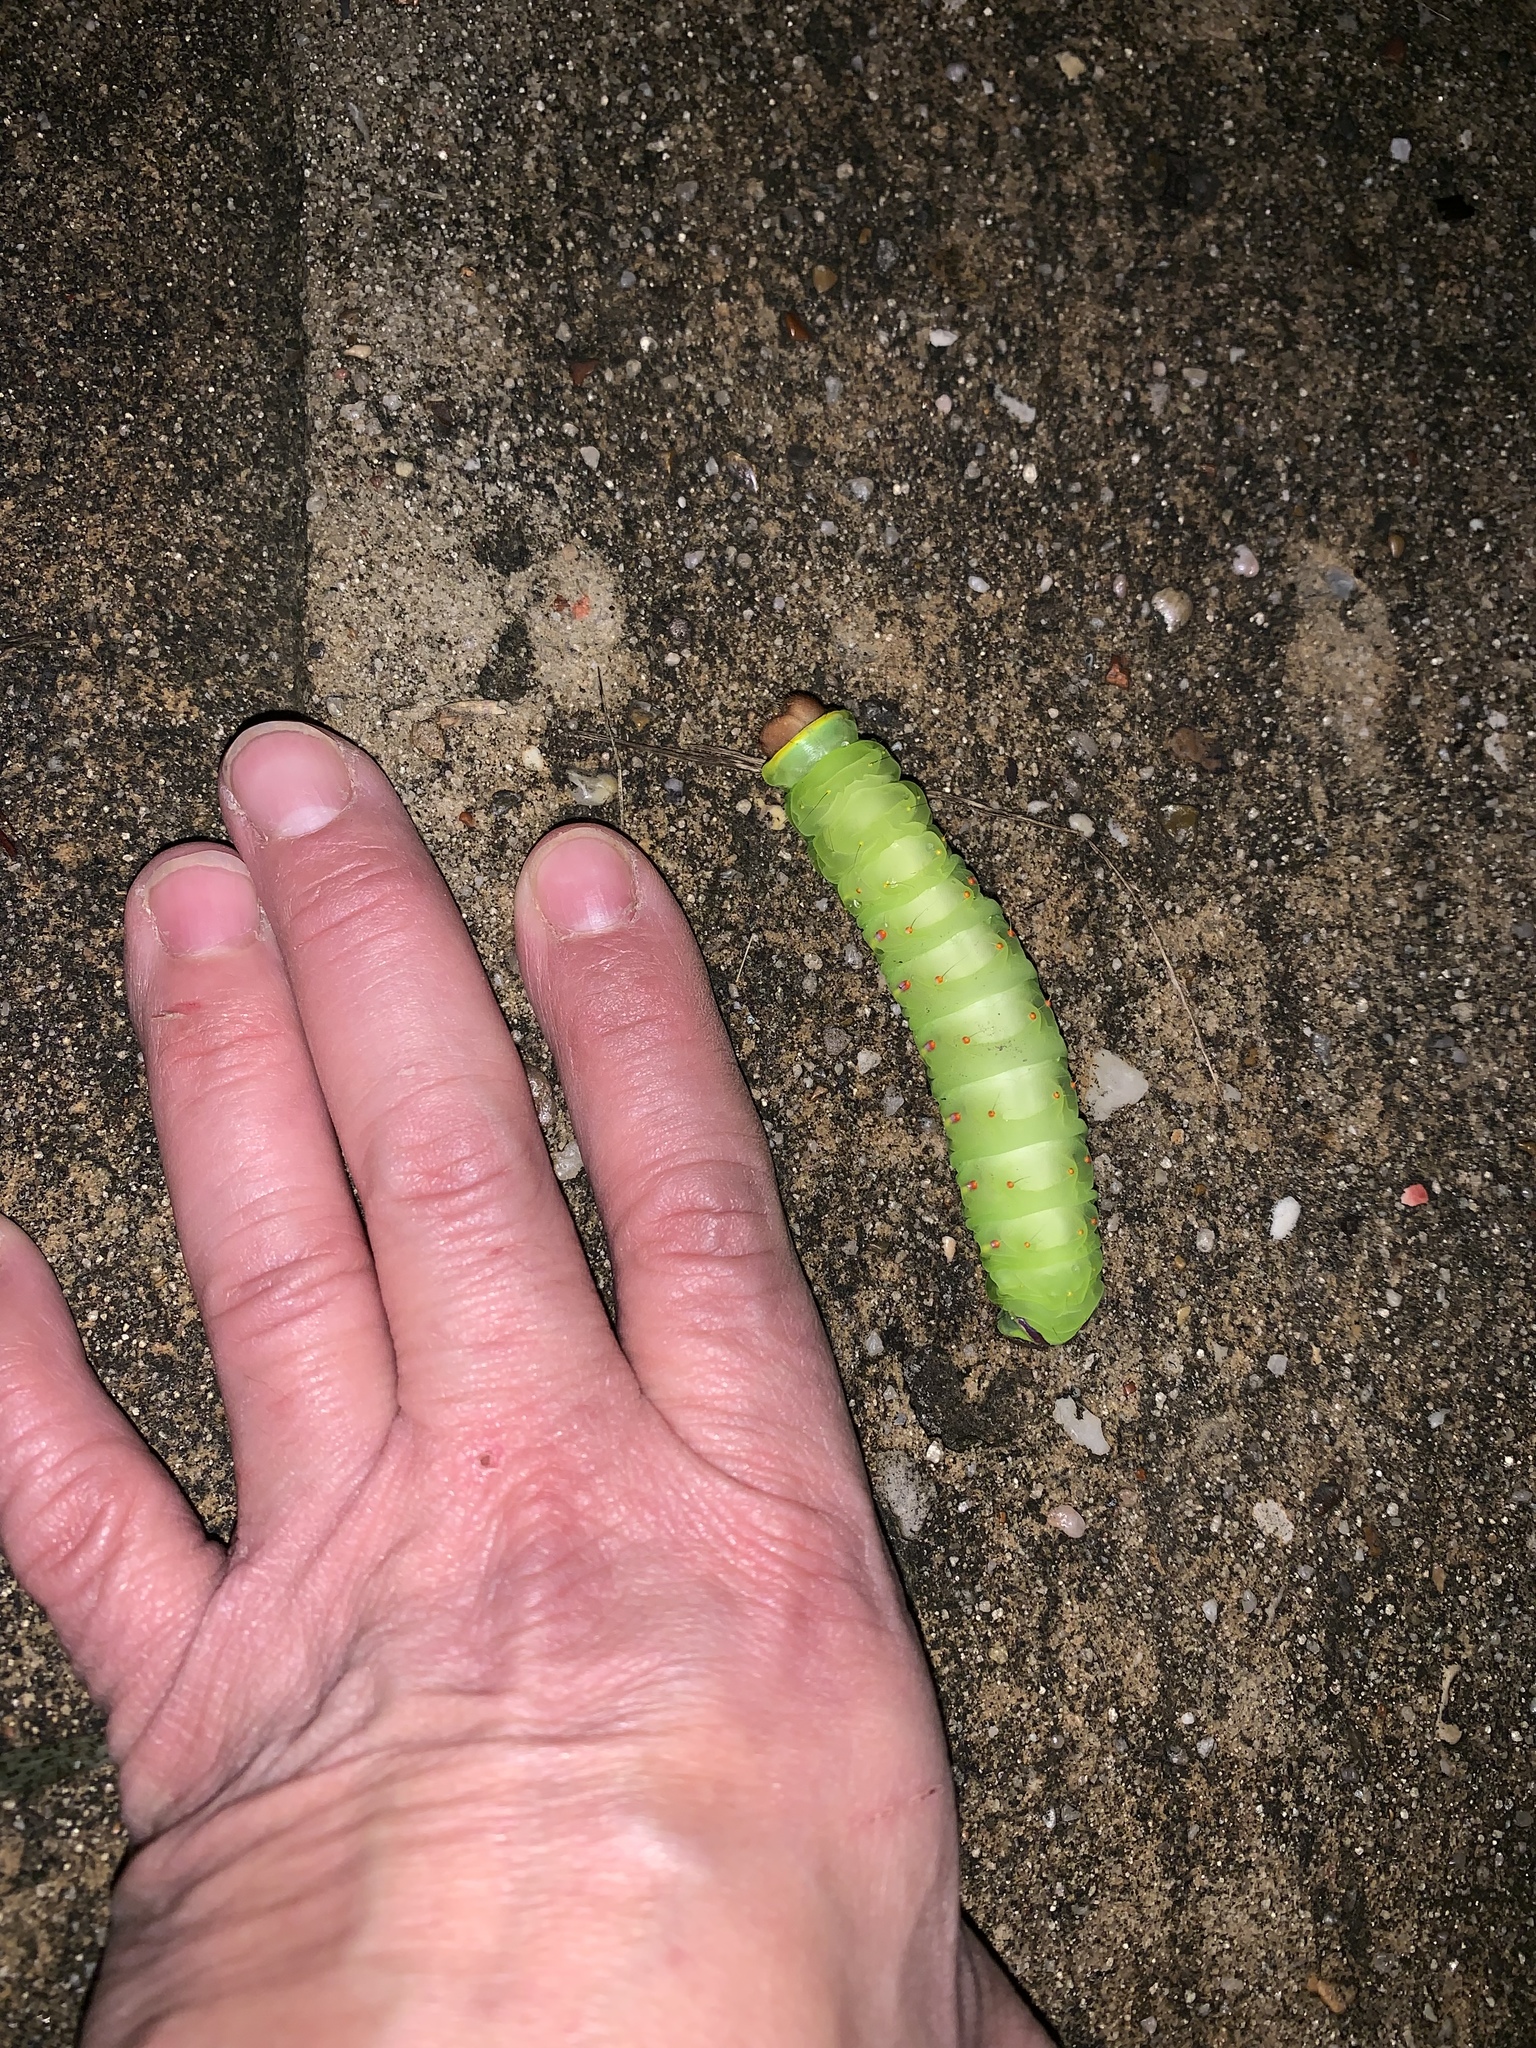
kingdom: Animalia
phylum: Arthropoda
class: Insecta
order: Lepidoptera
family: Saturniidae
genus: Antheraea
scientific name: Antheraea polyphemus
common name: Polyphemus moth
